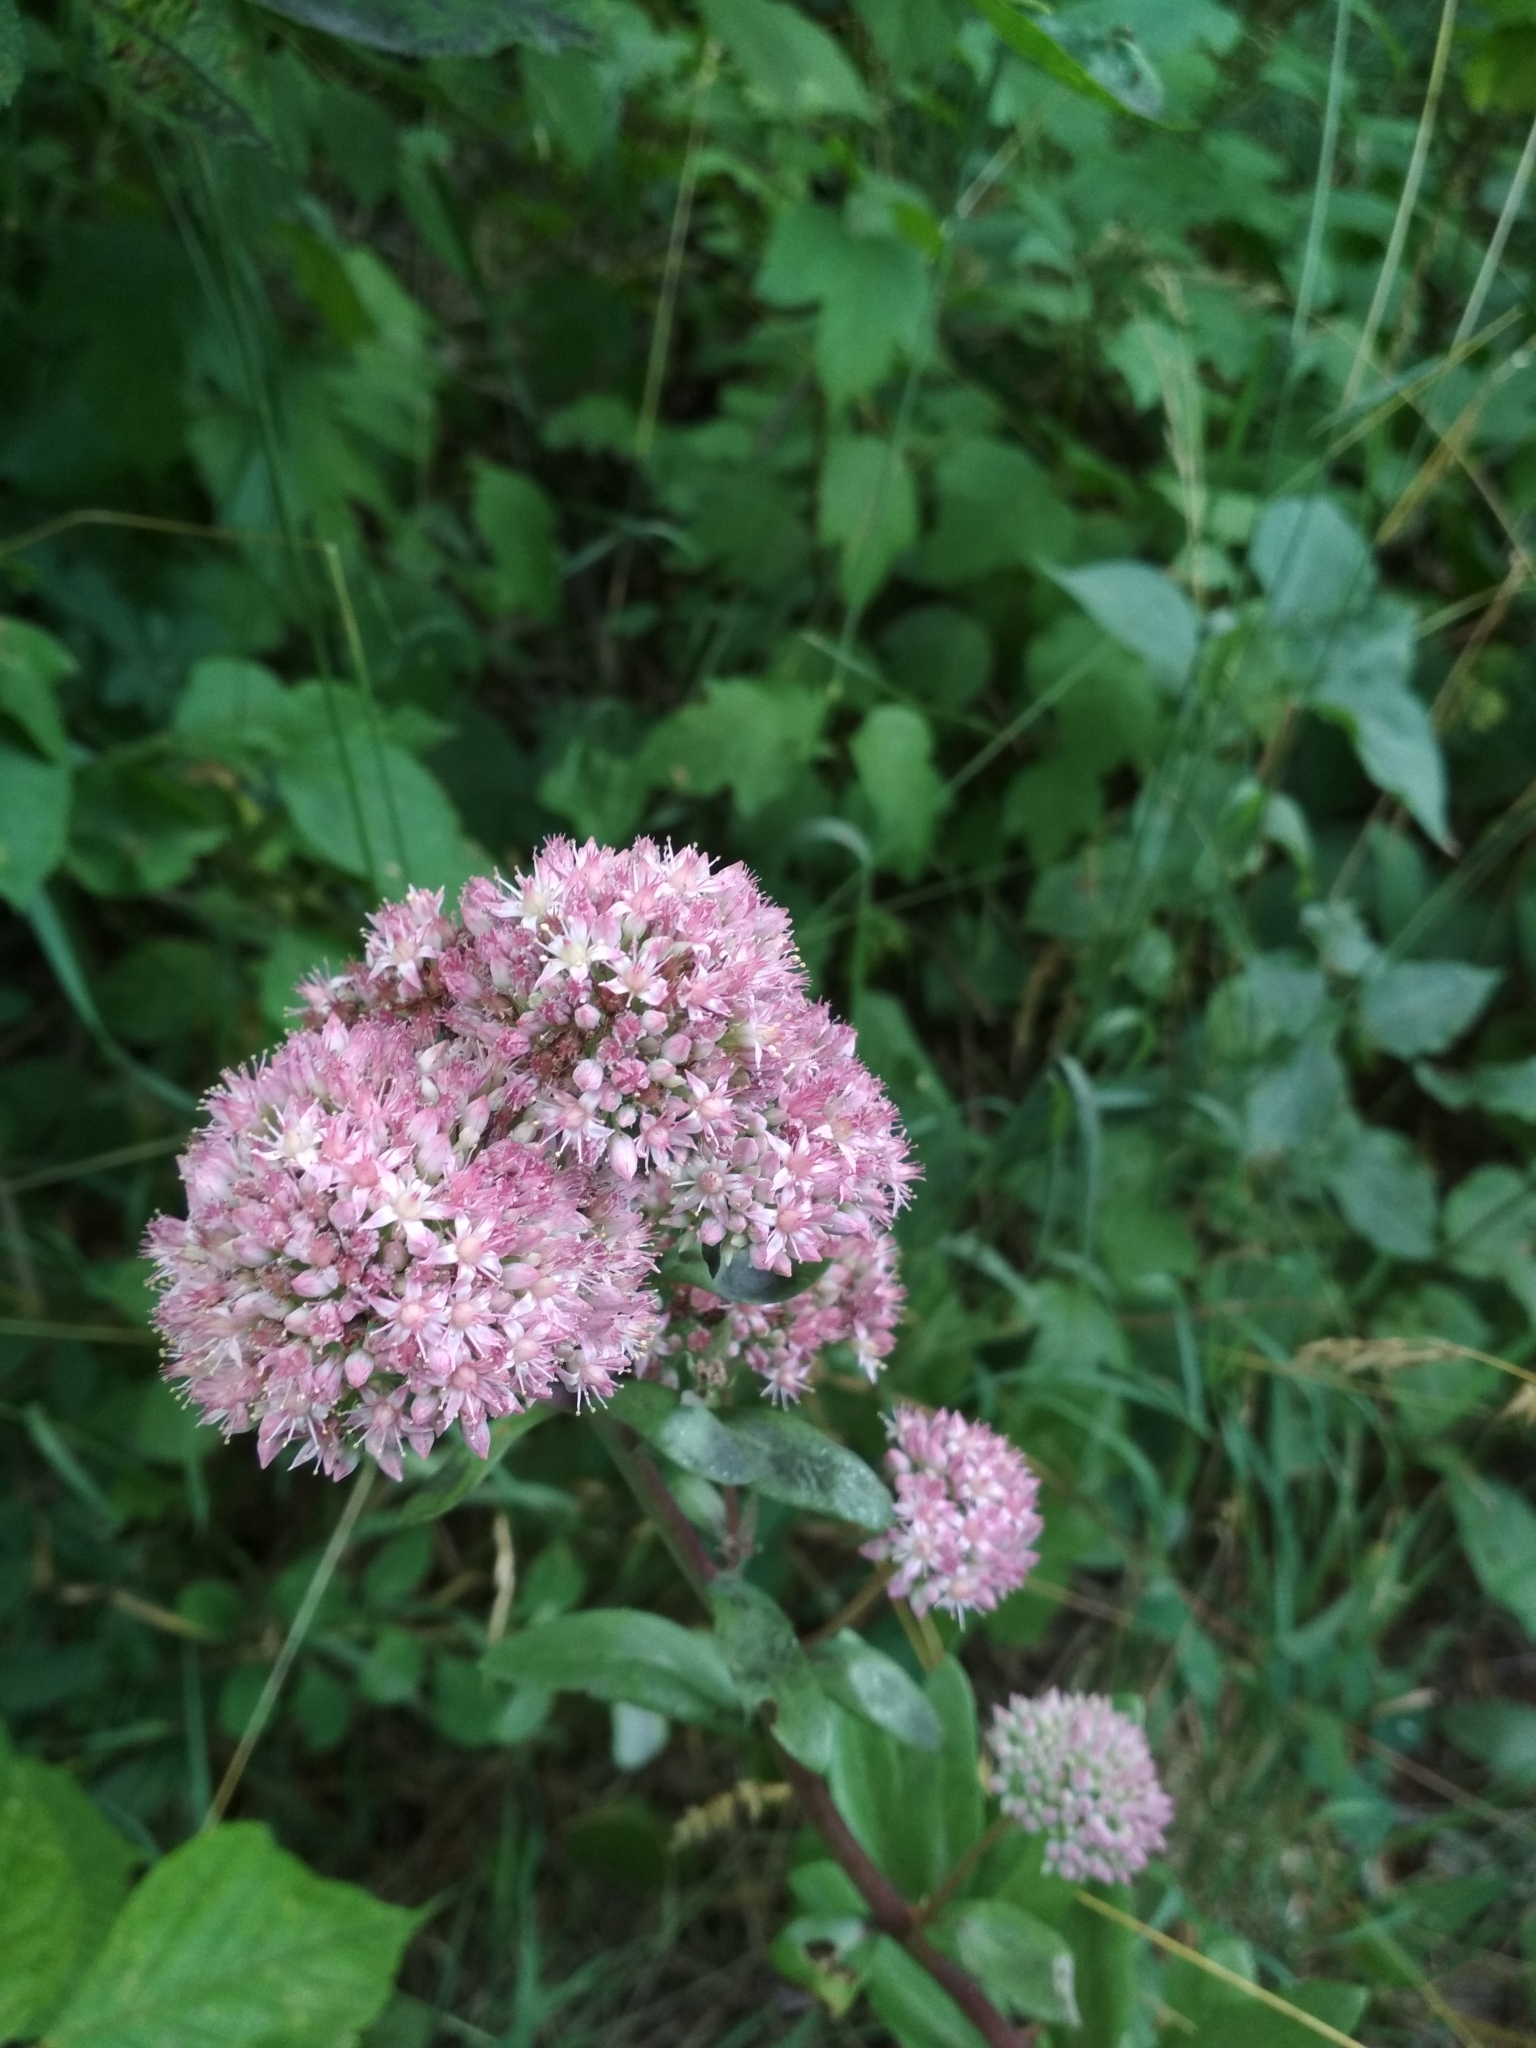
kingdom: Plantae
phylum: Tracheophyta
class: Magnoliopsida
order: Saxifragales
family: Crassulaceae
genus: Hylotelephium
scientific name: Hylotelephium telephium
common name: Live-forever
